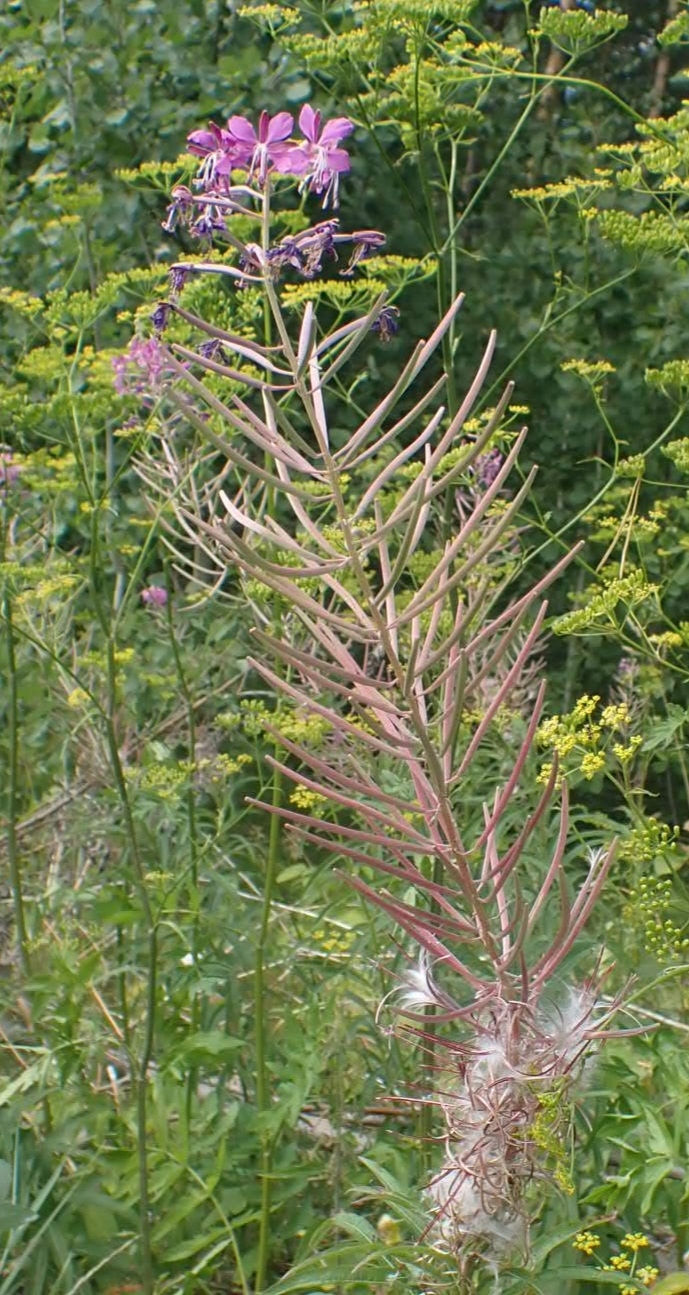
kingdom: Plantae
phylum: Tracheophyta
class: Magnoliopsida
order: Myrtales
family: Onagraceae
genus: Chamaenerion
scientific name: Chamaenerion angustifolium
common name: Fireweed
